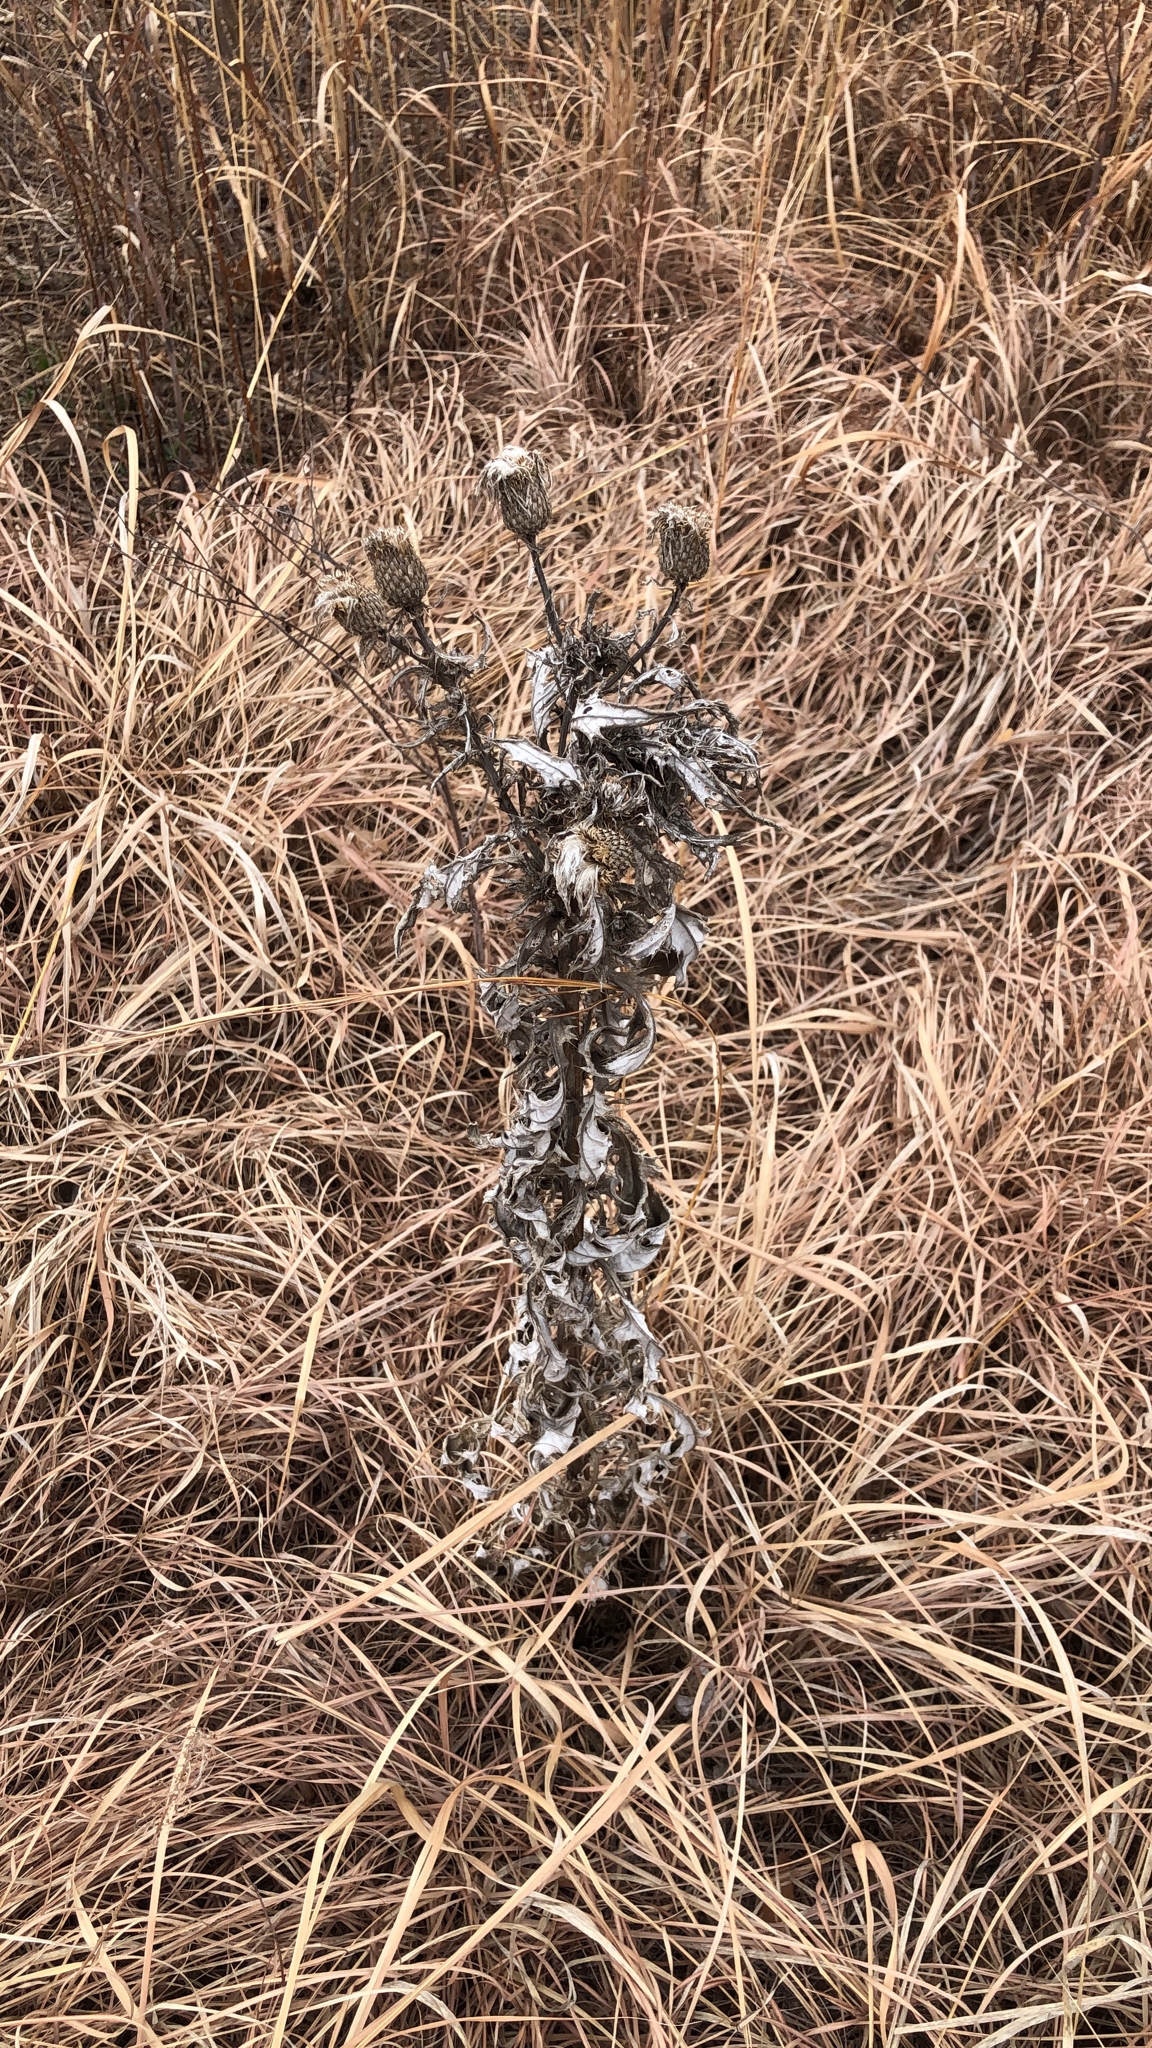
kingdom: Plantae
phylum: Tracheophyta
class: Magnoliopsida
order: Asterales
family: Asteraceae
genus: Cirsium
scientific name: Cirsium altissimum
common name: Roadside thistle
